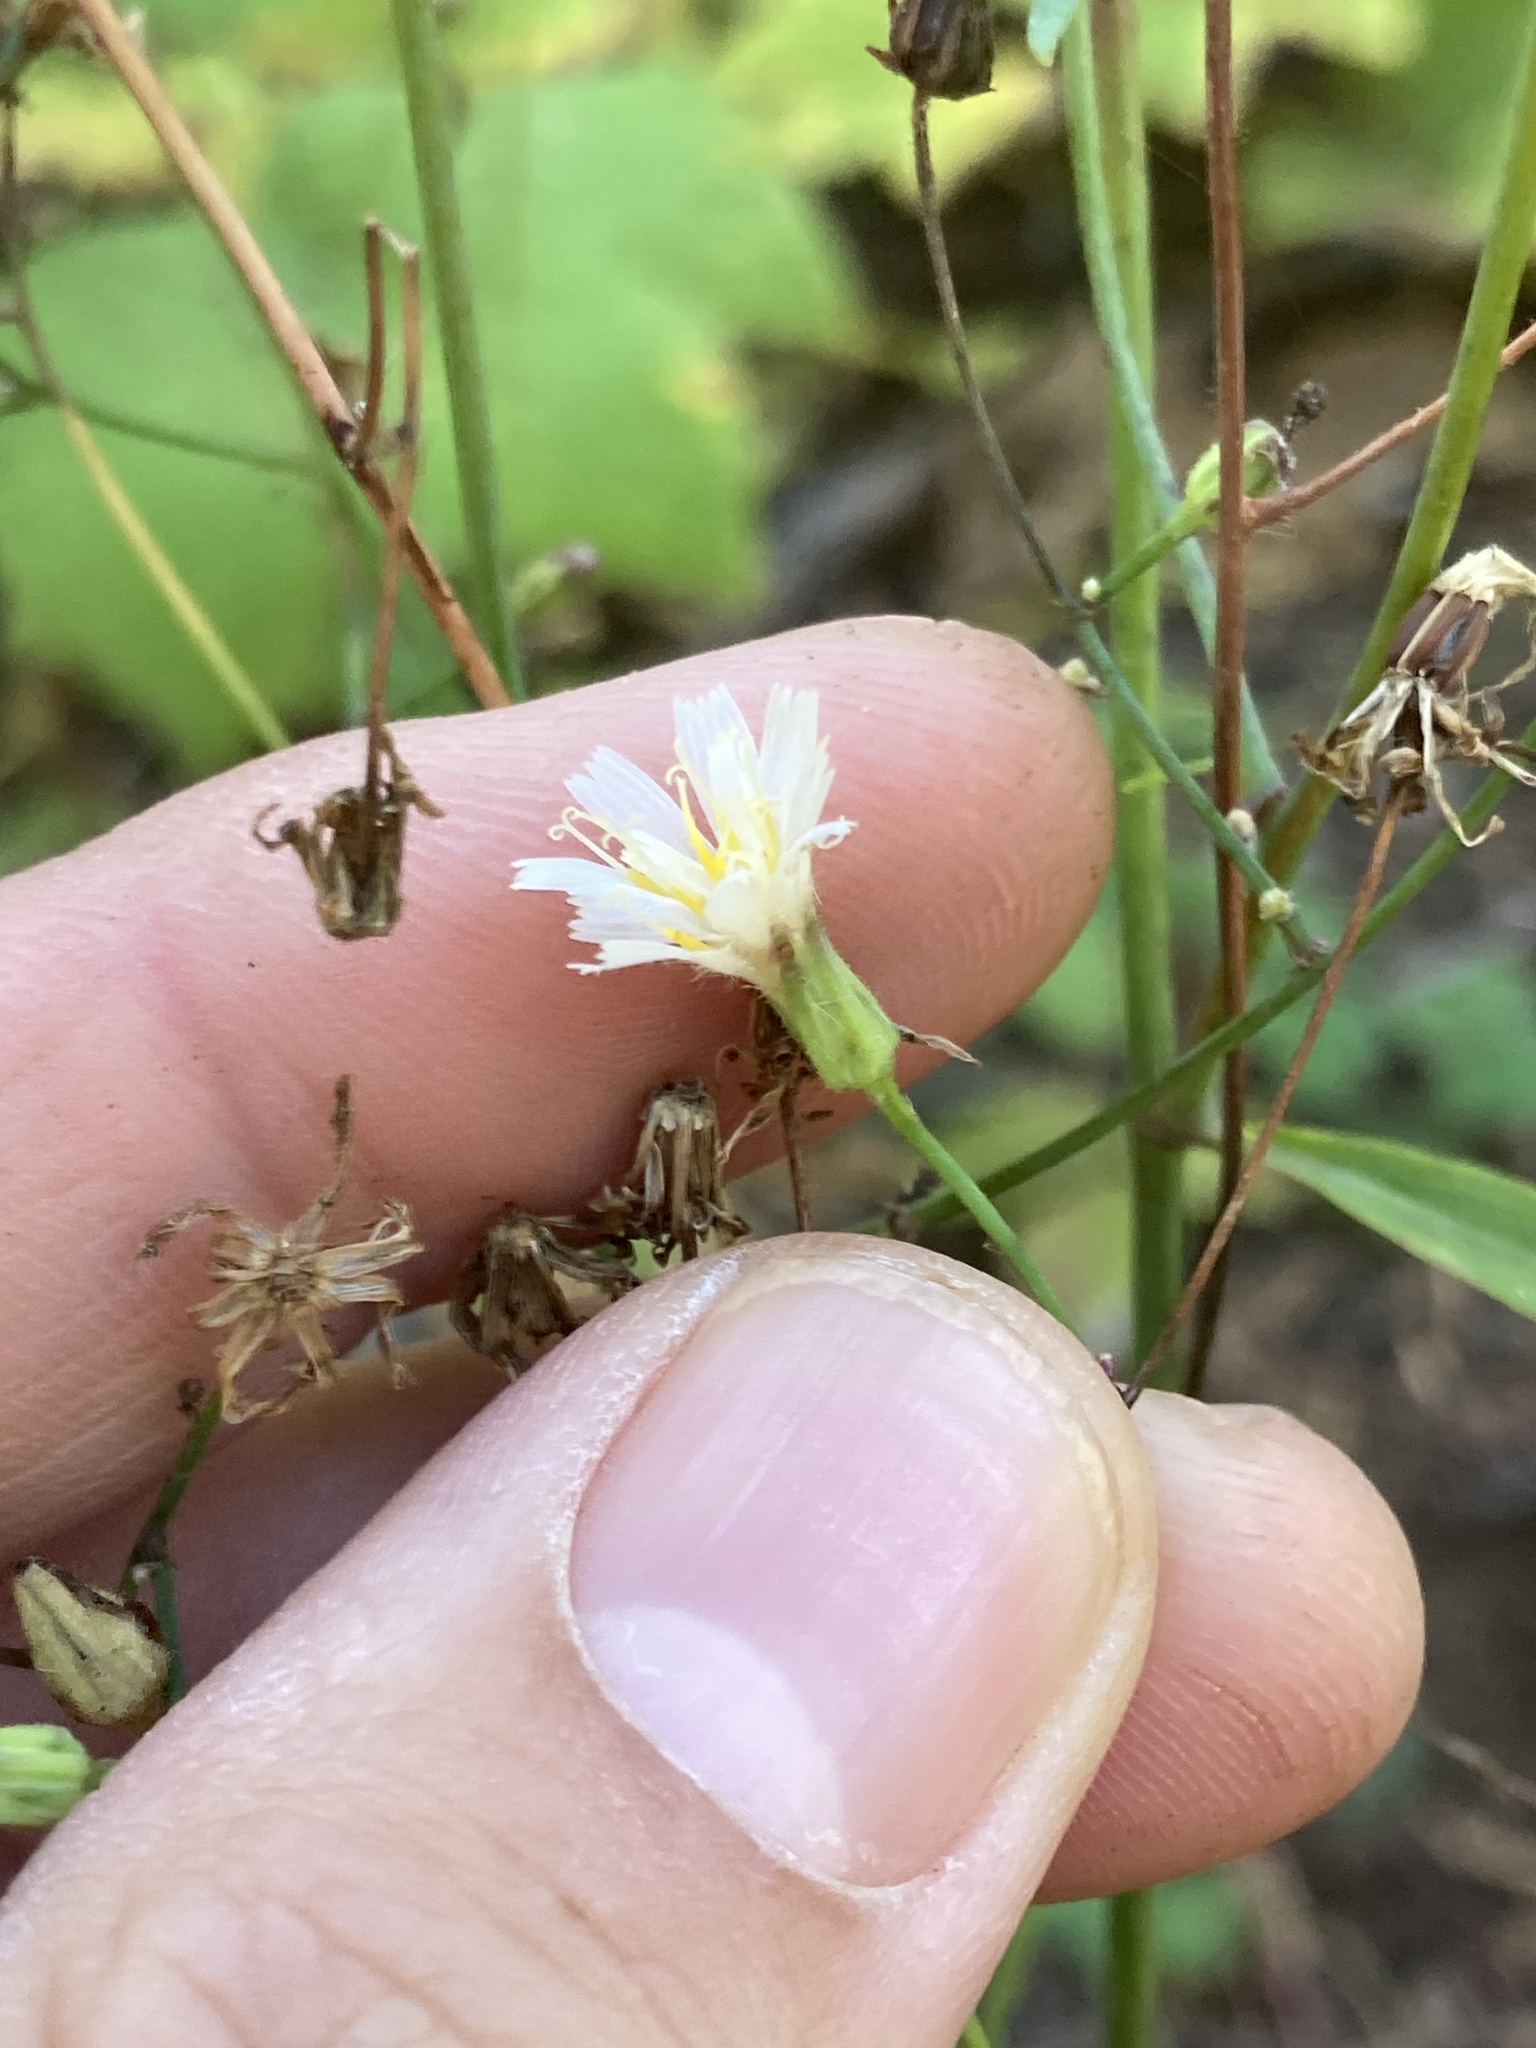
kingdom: Plantae
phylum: Tracheophyta
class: Magnoliopsida
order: Asterales
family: Asteraceae
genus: Hieracium
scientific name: Hieracium albiflorum
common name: White hawkweed
